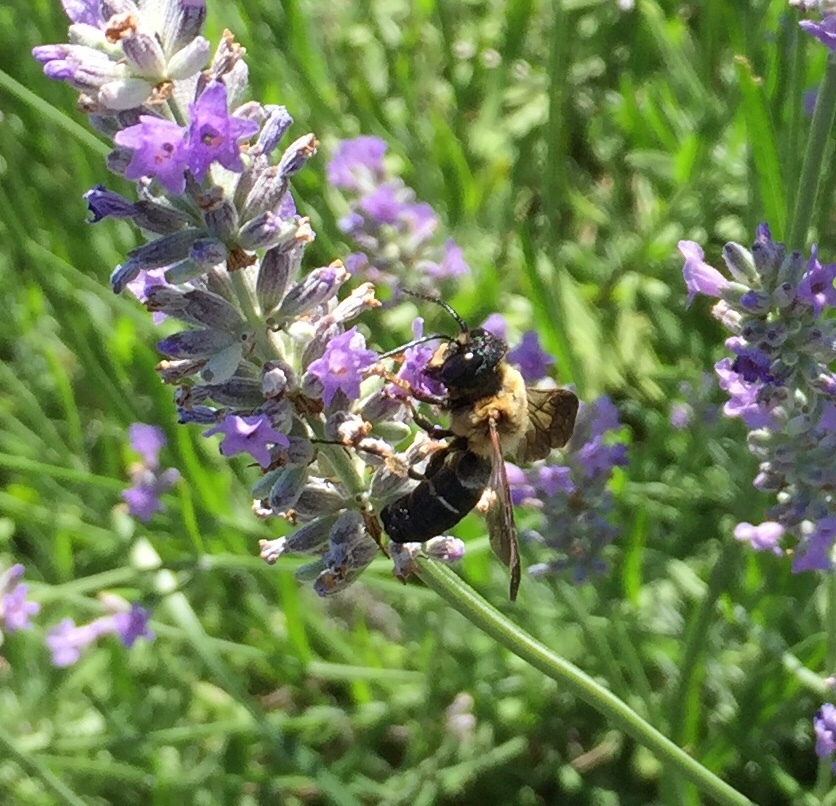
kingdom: Animalia
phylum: Arthropoda
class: Insecta
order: Hymenoptera
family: Megachilidae
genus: Megachile
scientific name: Megachile sculpturalis
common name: Sculptured resin bee
